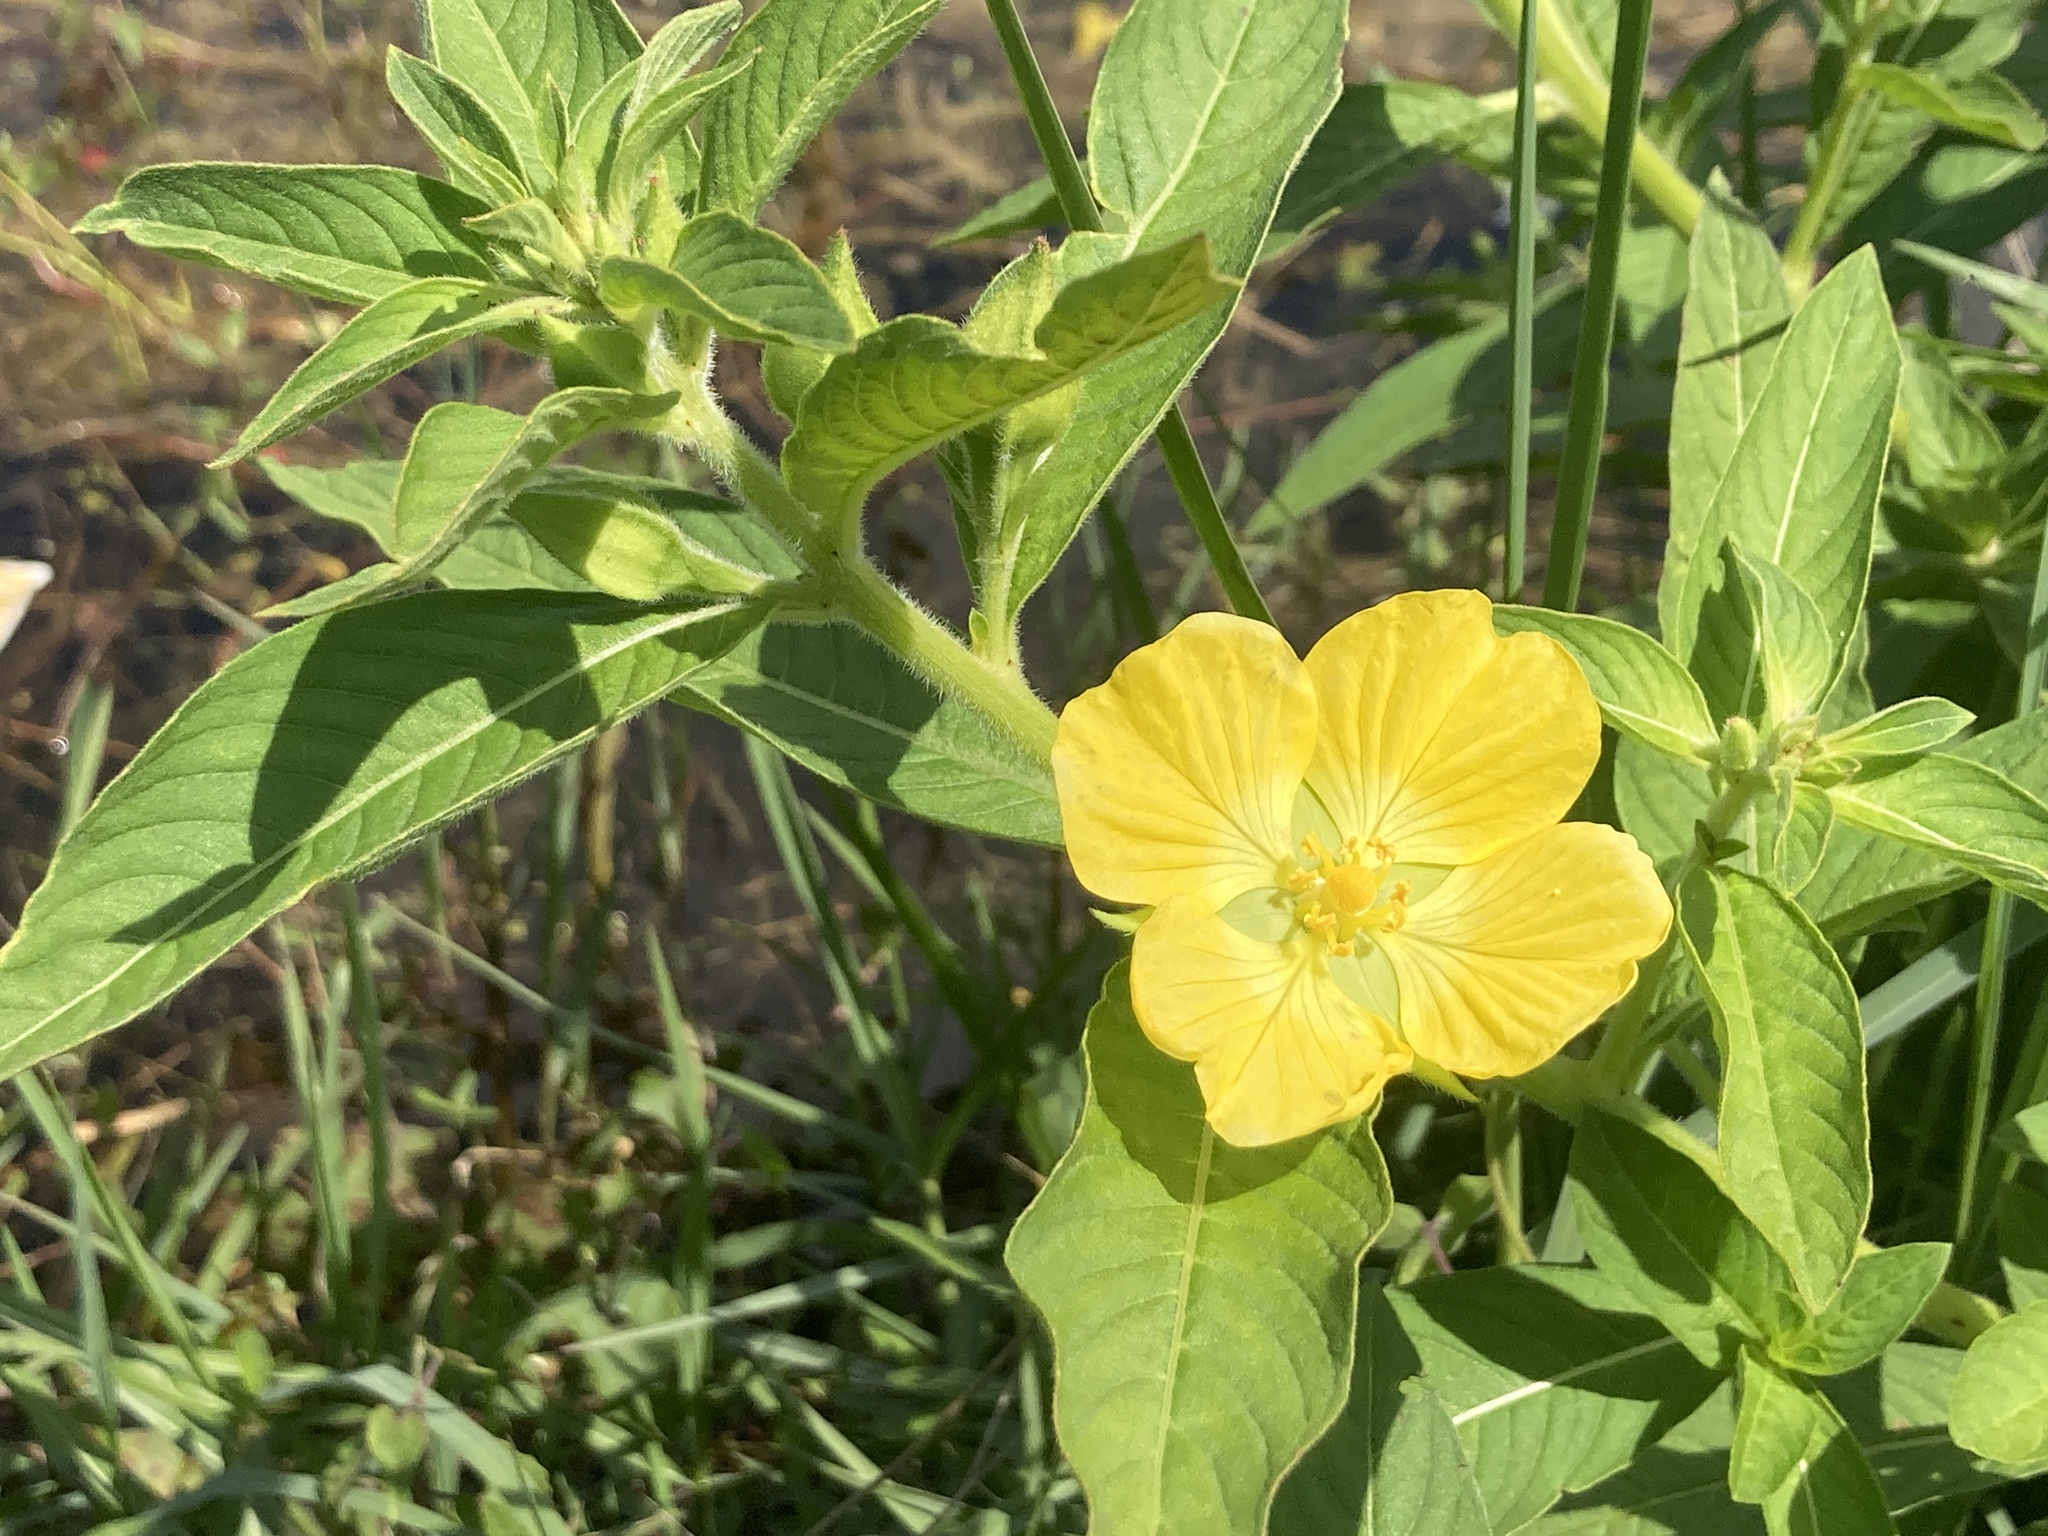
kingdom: Plantae
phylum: Tracheophyta
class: Magnoliopsida
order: Myrtales
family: Onagraceae
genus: Ludwigia
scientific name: Ludwigia peruviana
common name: Peruvian primrose-willow
